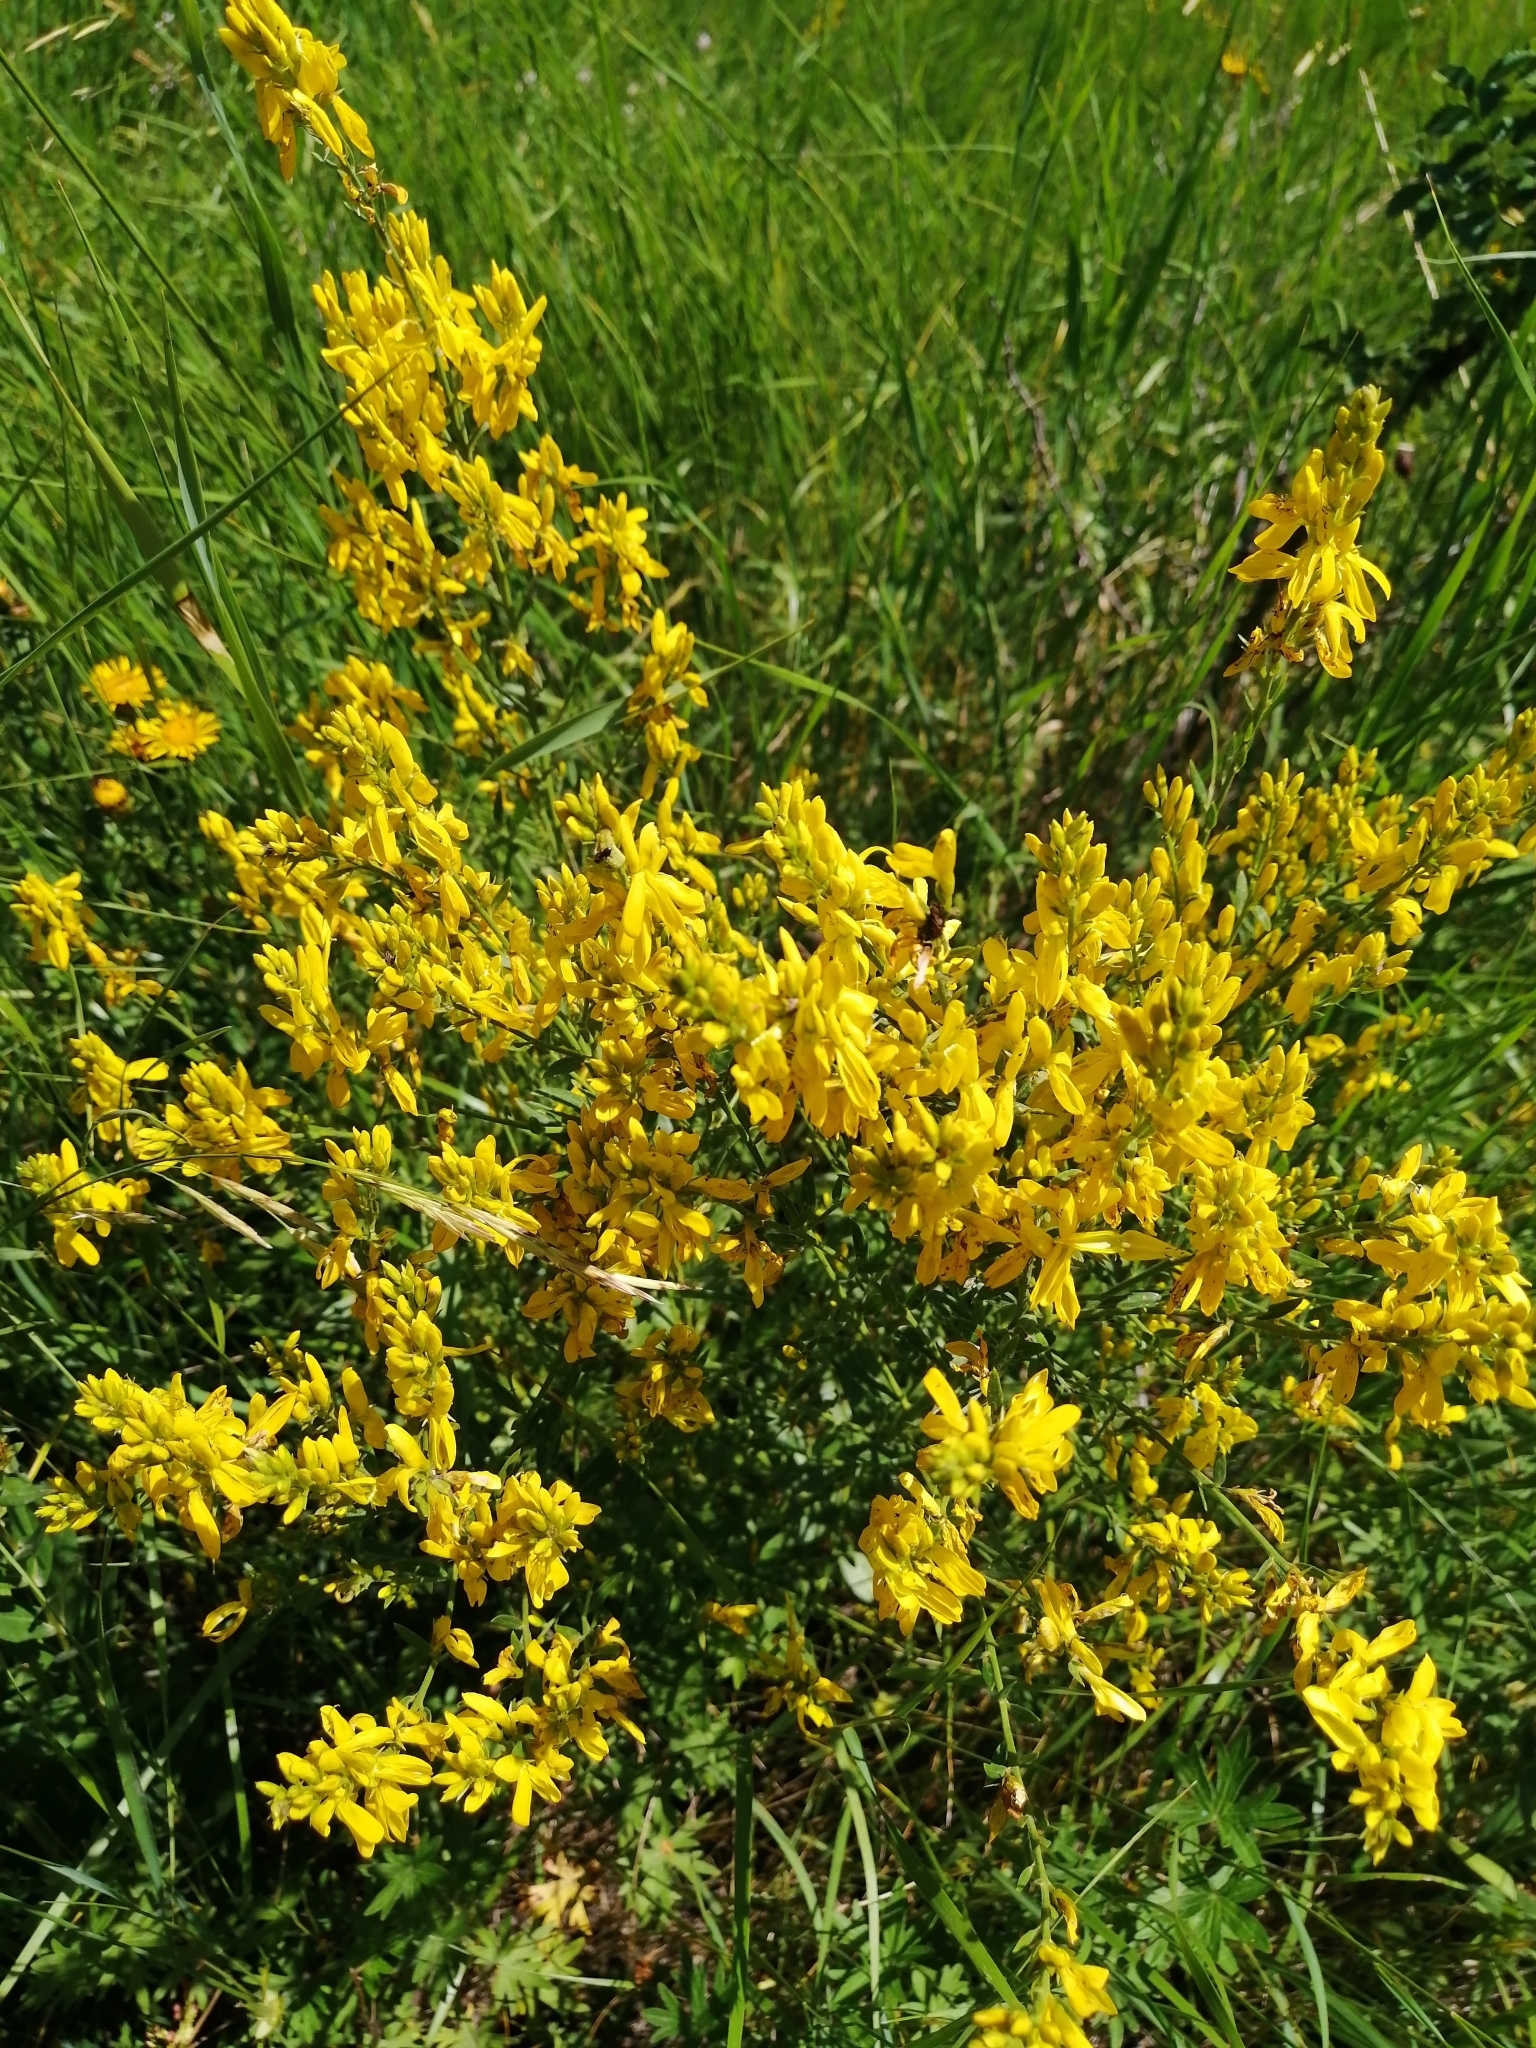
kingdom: Plantae
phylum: Tracheophyta
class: Magnoliopsida
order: Fabales
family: Fabaceae
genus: Genista
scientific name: Genista tinctoria
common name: Dyer's greenweed
